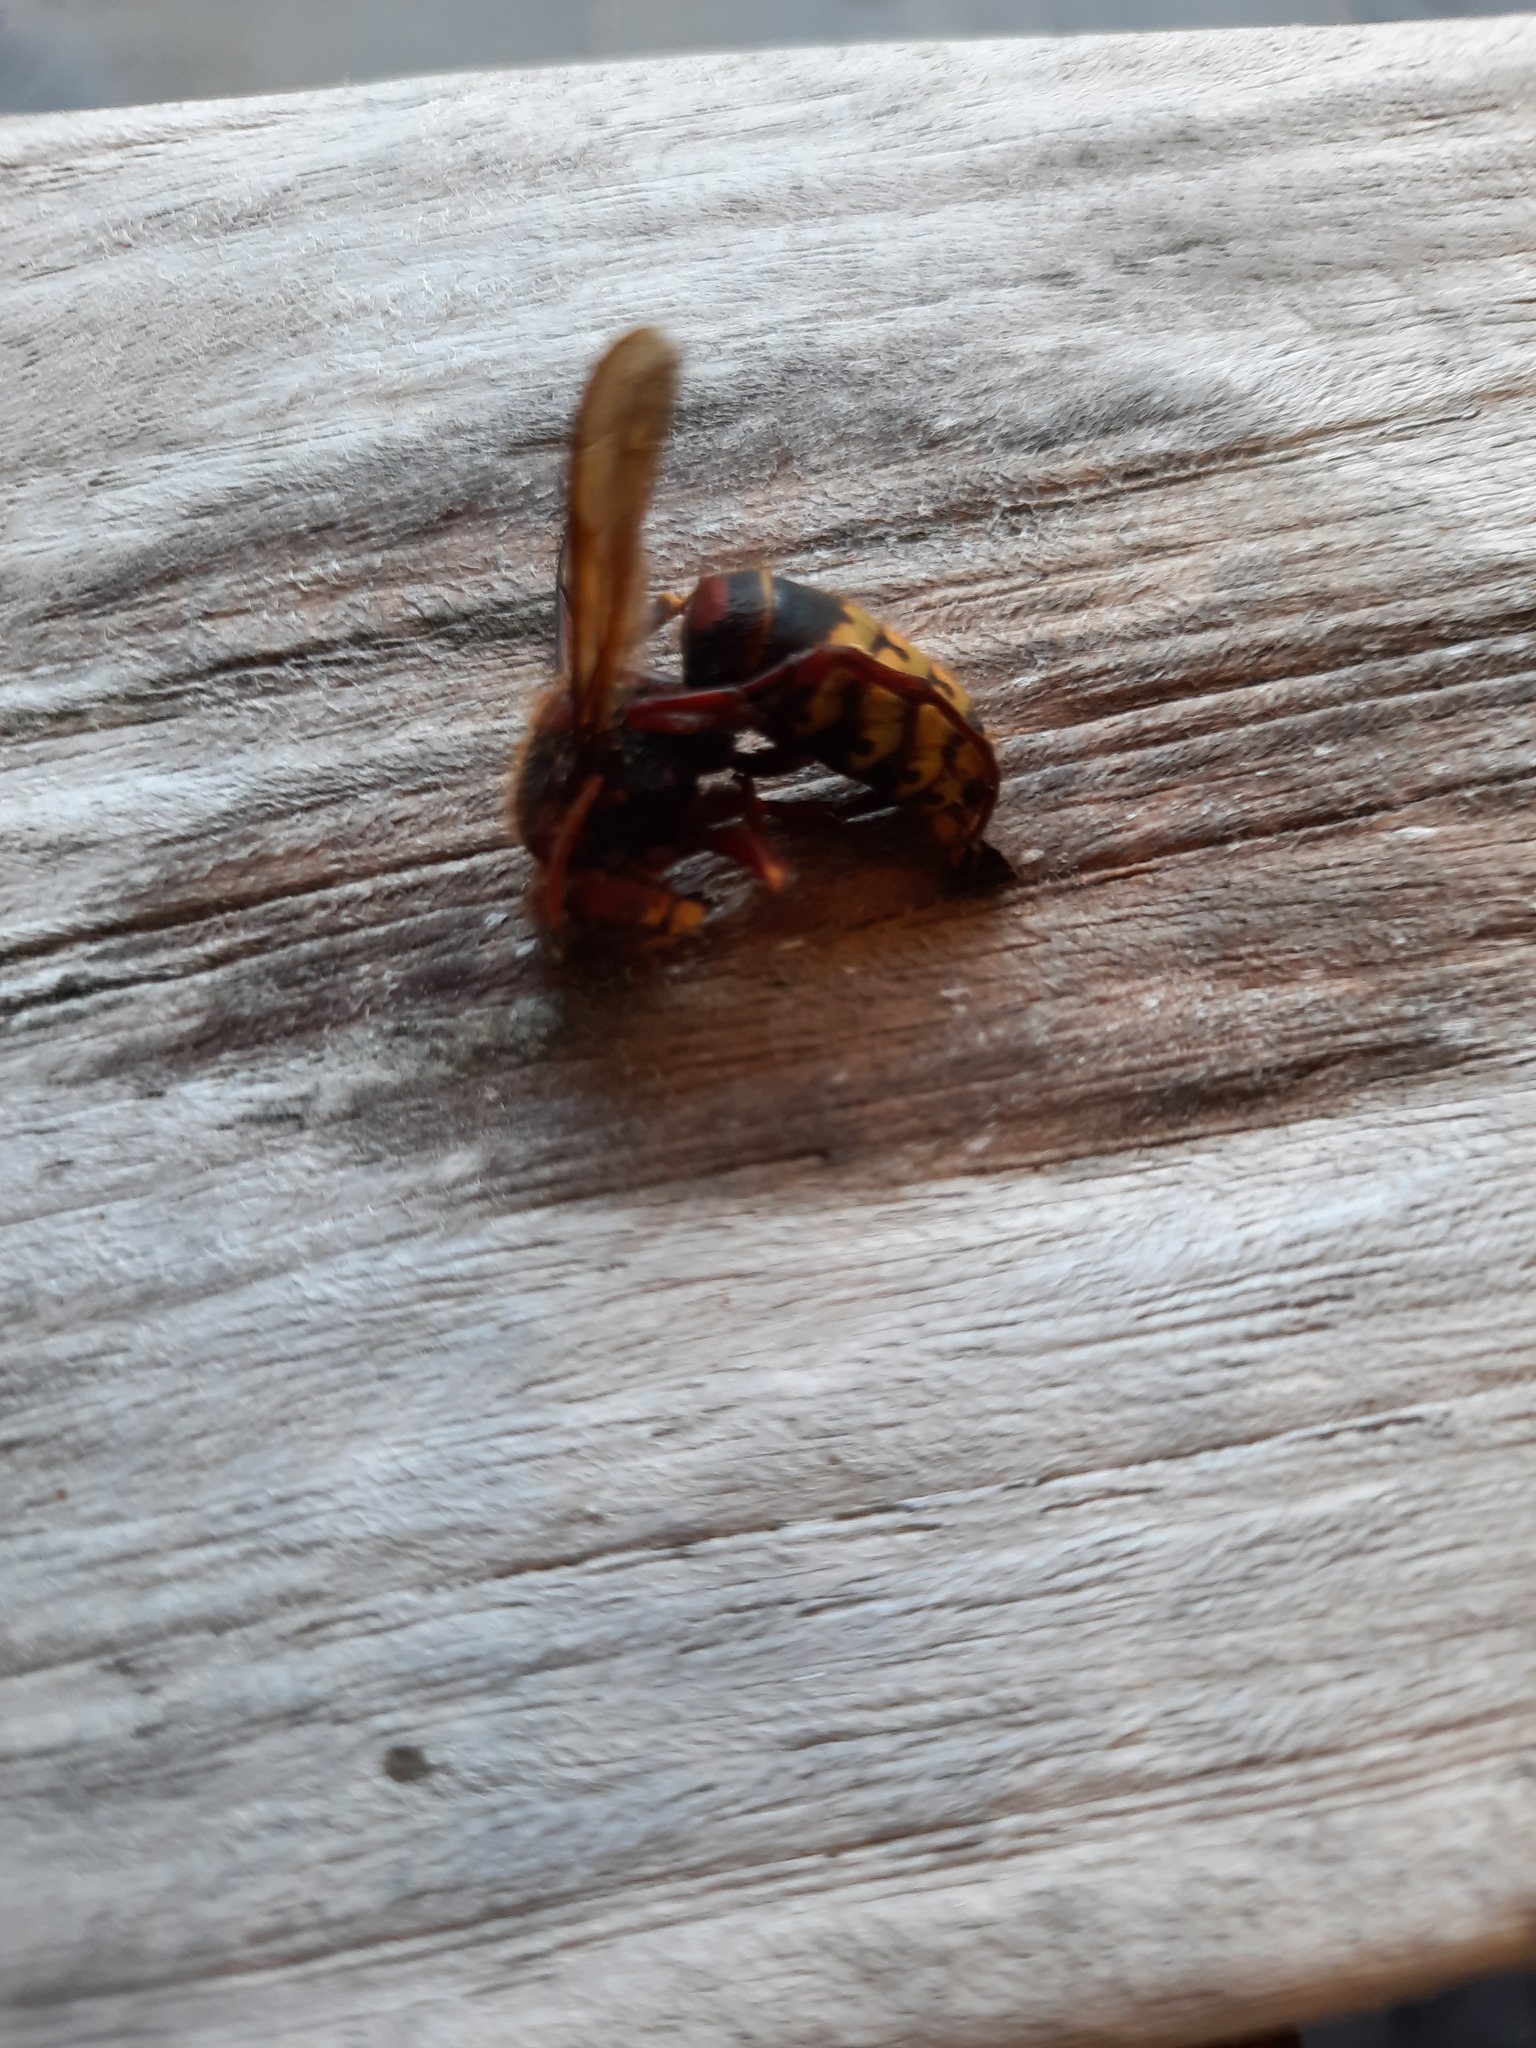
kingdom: Animalia
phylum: Arthropoda
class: Insecta
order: Hymenoptera
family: Vespidae
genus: Vespa
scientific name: Vespa crabro
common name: Hornet
